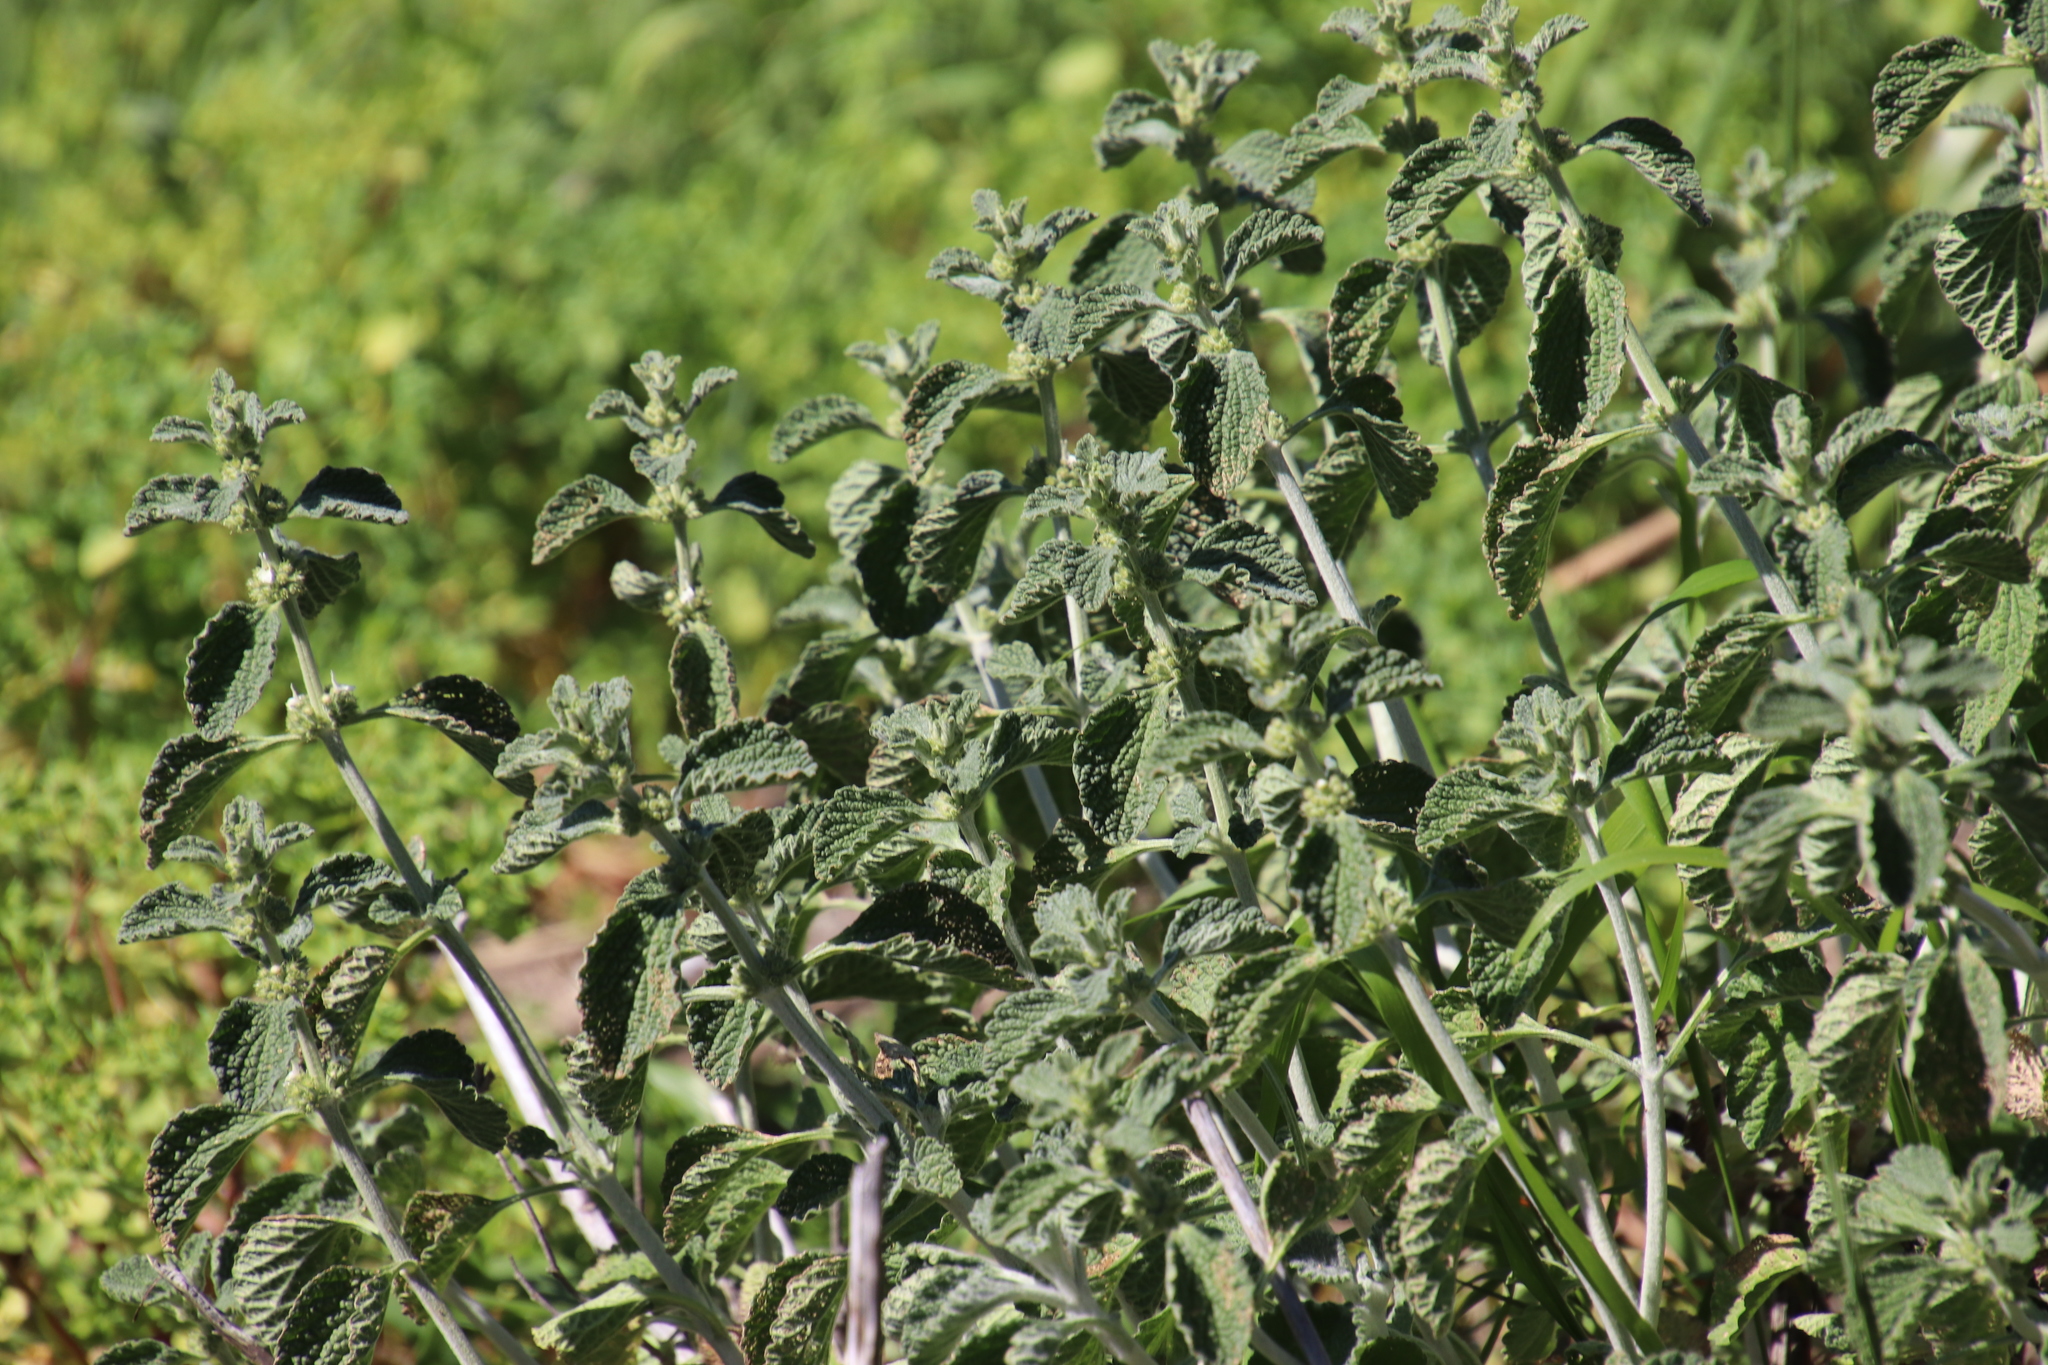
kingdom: Plantae
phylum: Tracheophyta
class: Magnoliopsida
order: Lamiales
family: Lamiaceae
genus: Marrubium
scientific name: Marrubium vulgare
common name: Horehound
